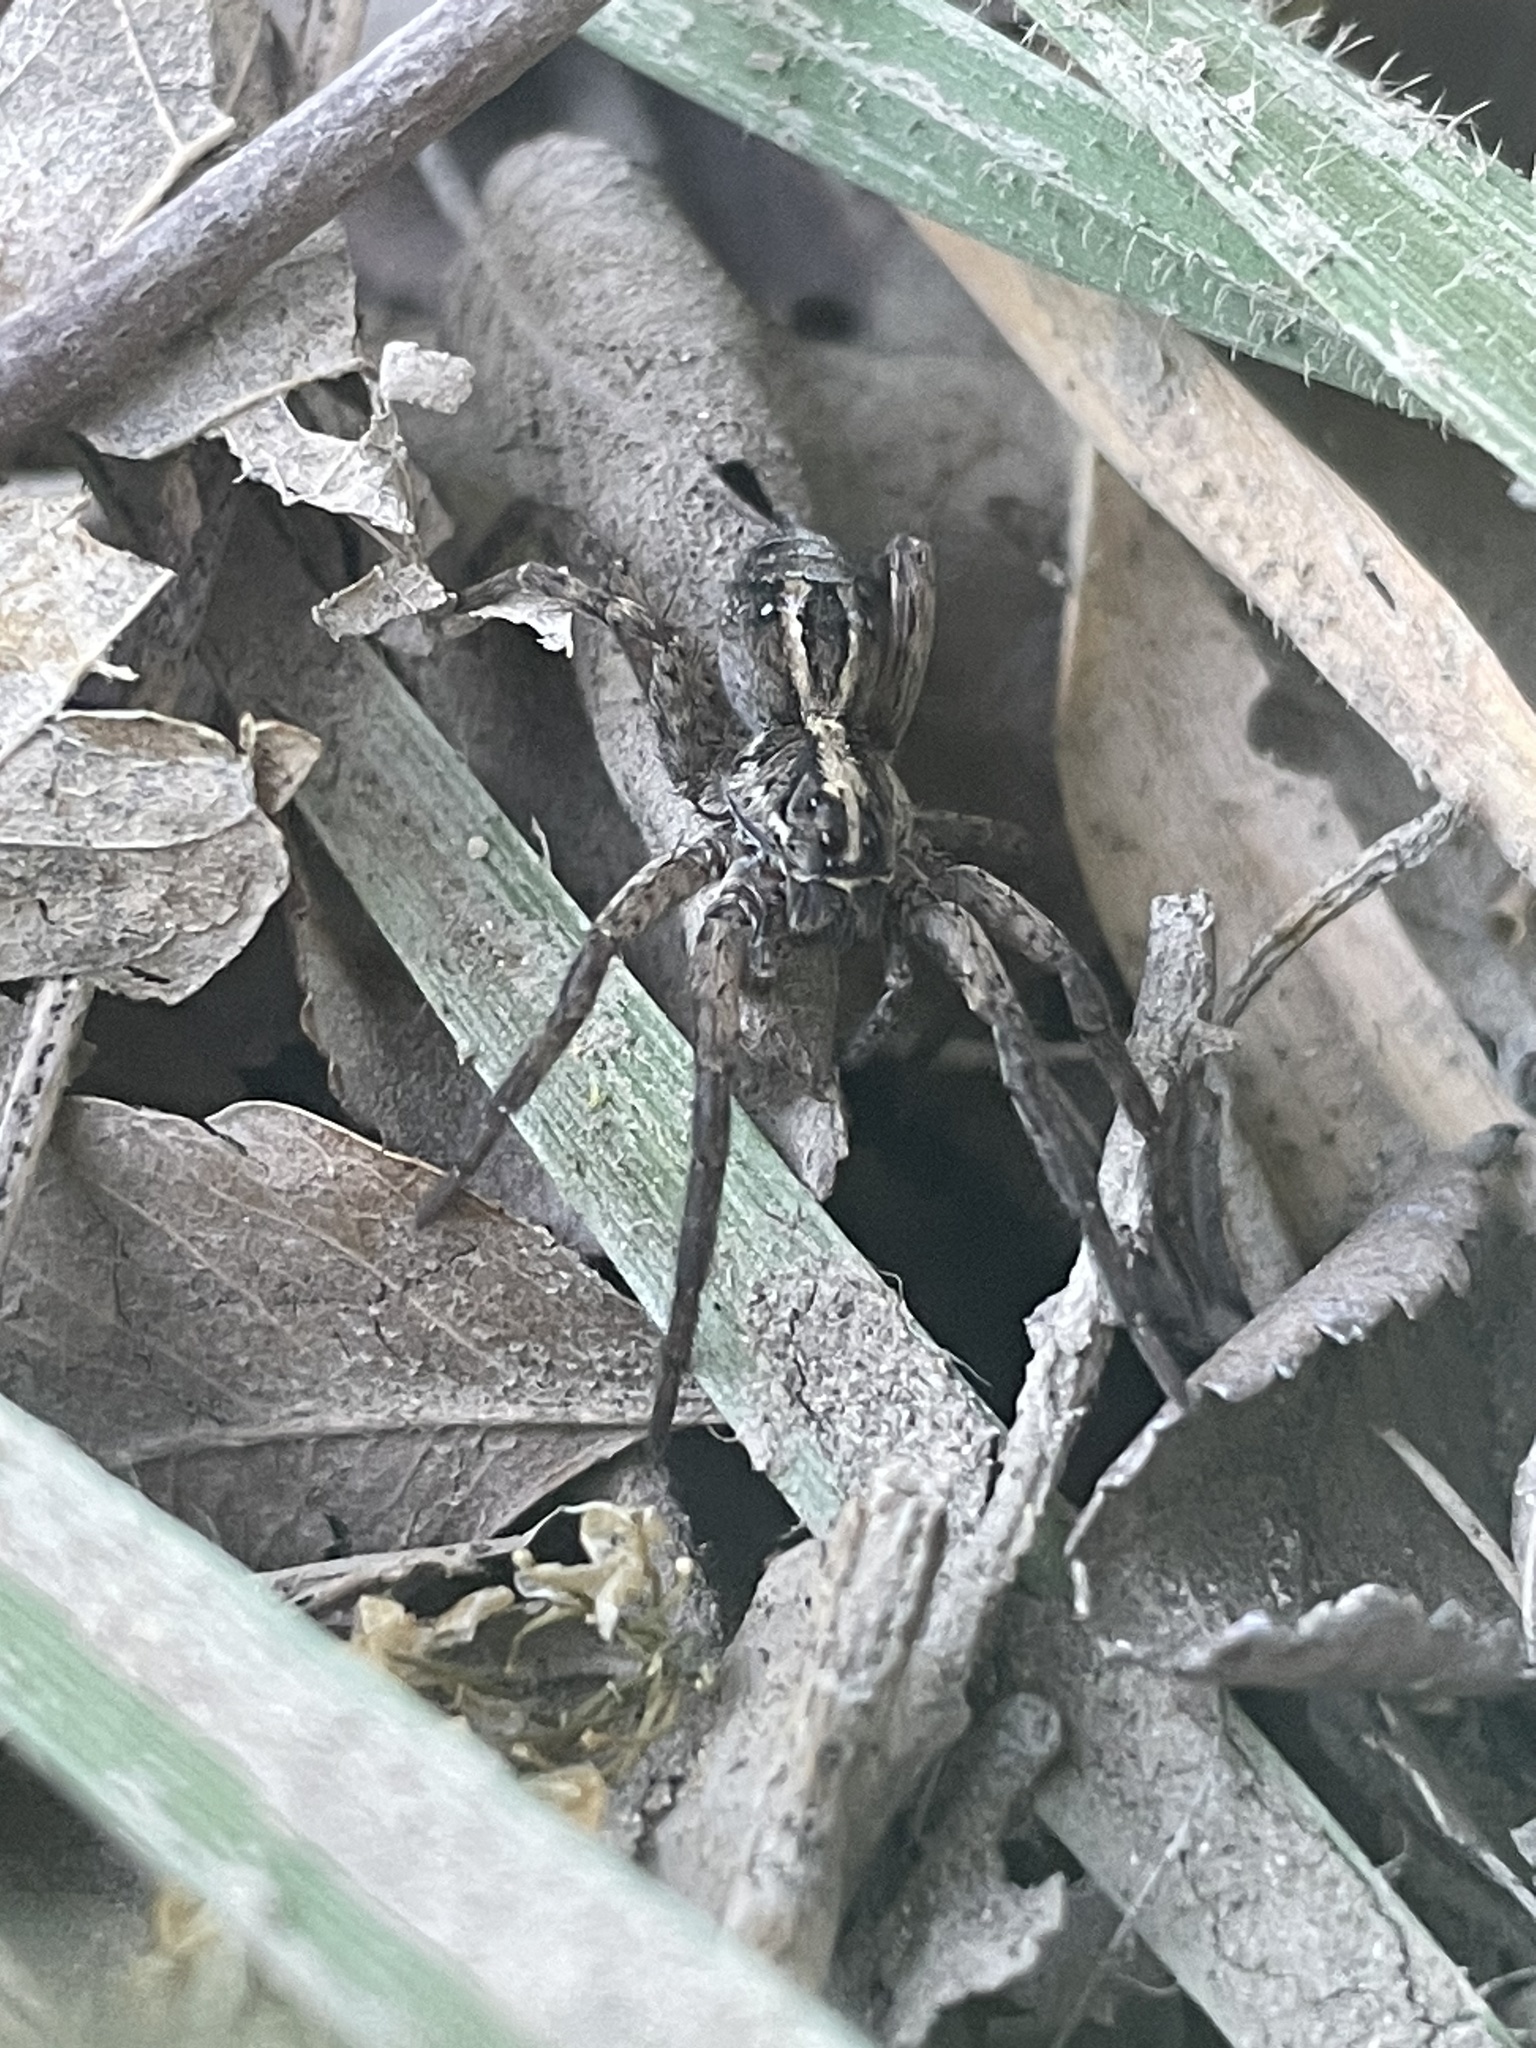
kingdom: Animalia
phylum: Arthropoda
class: Arachnida
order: Araneae
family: Lycosidae
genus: Schizocosa
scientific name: Schizocosa avida
